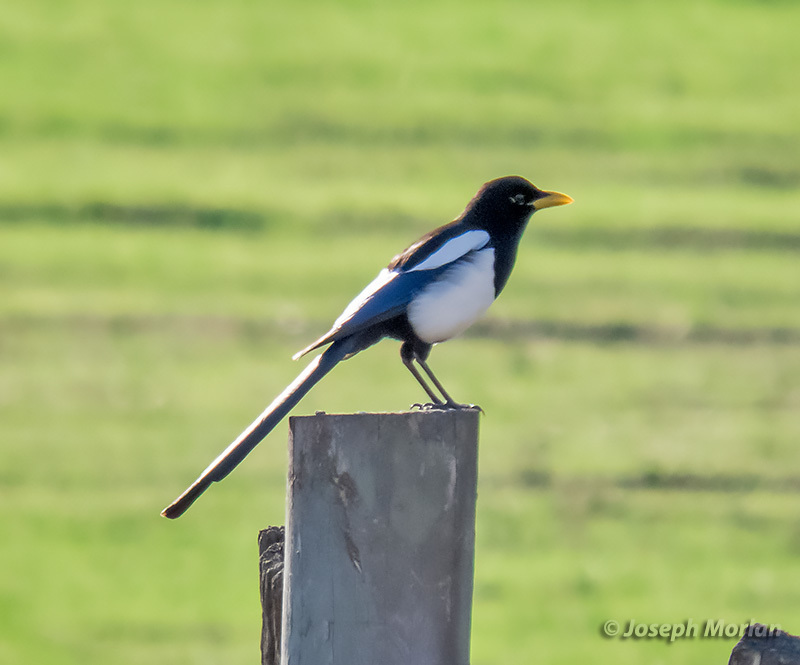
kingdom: Animalia
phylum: Chordata
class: Aves
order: Passeriformes
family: Corvidae
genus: Pica
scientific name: Pica nuttalli
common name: Yellow-billed magpie
